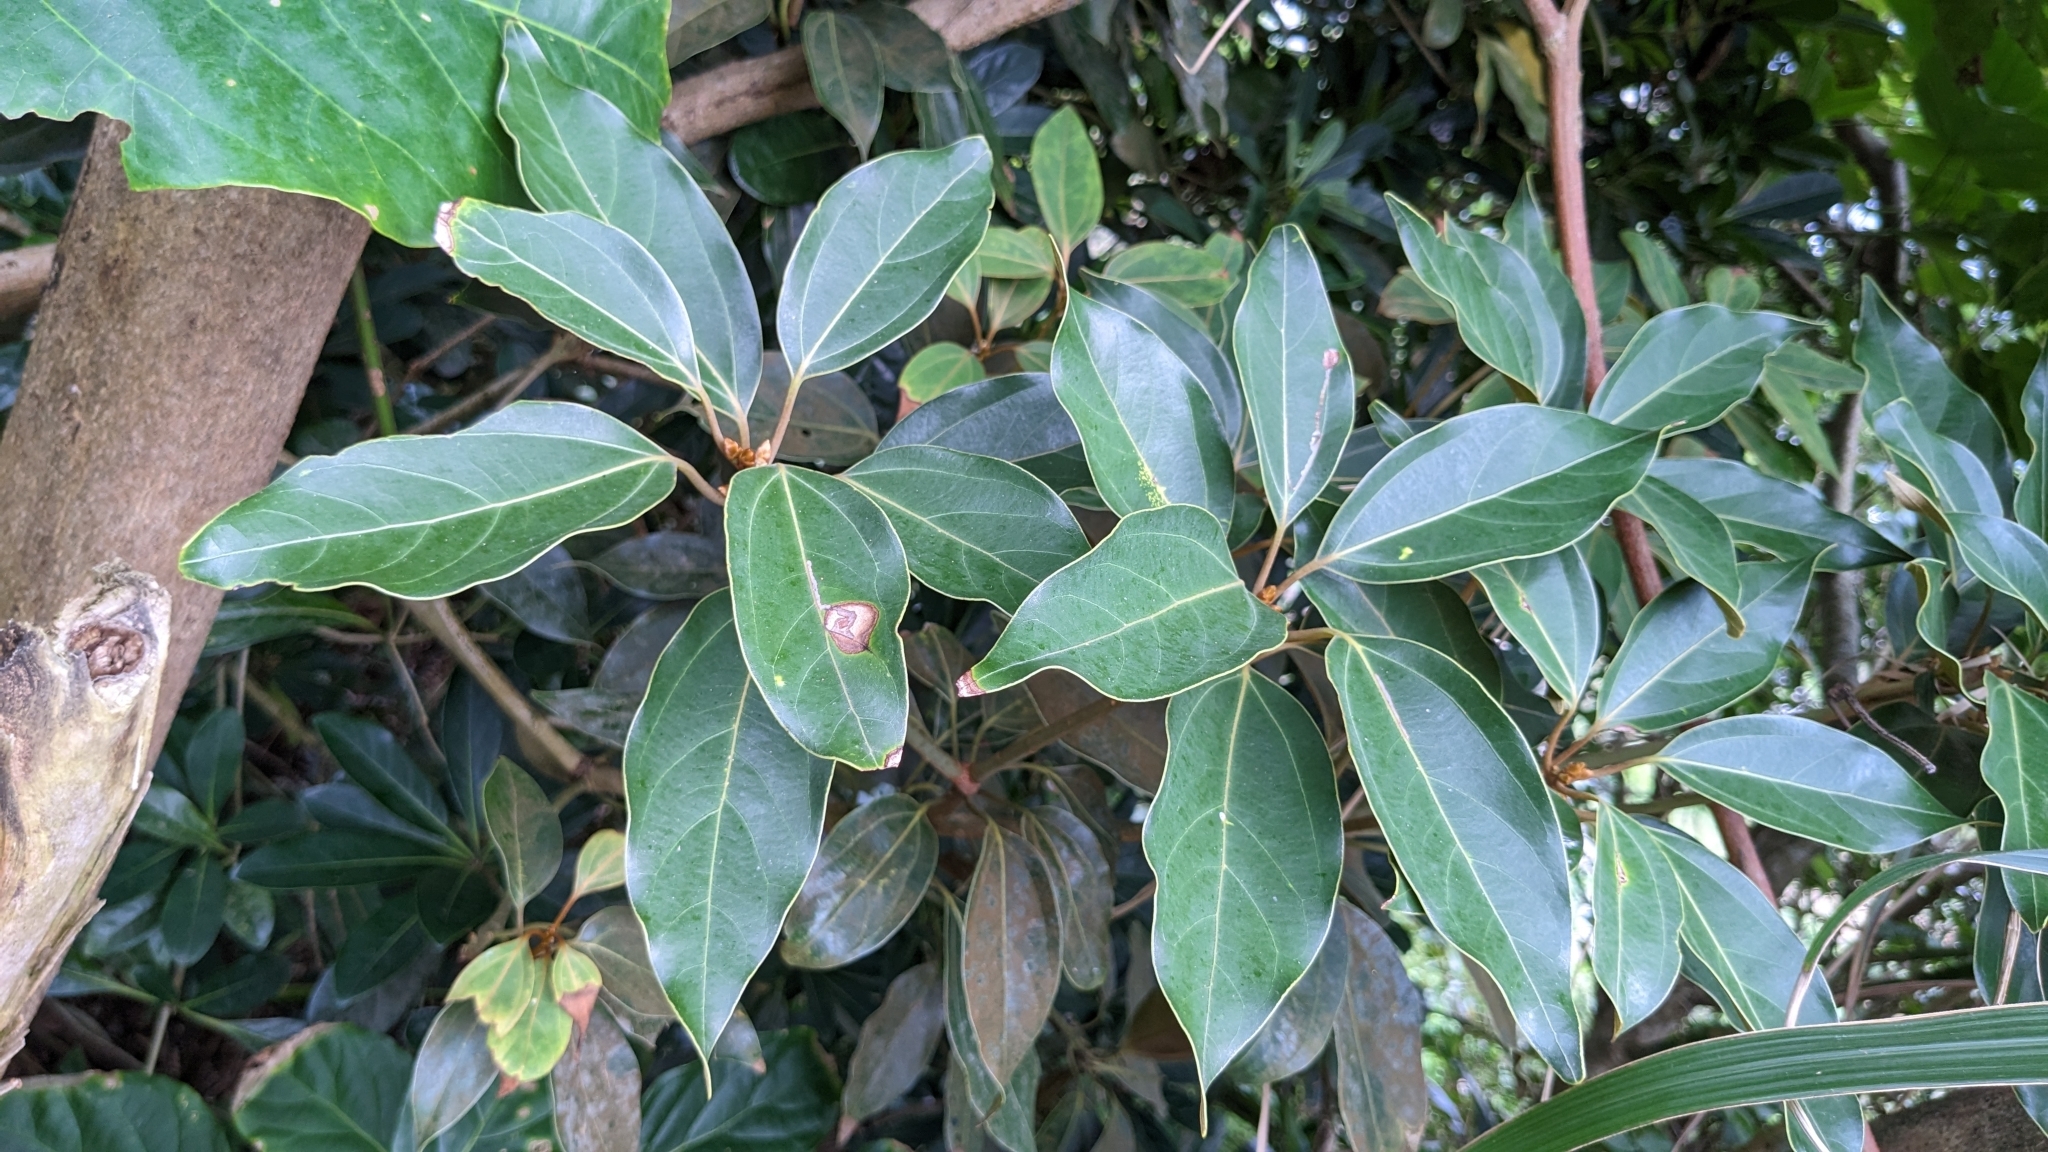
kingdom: Plantae
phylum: Tracheophyta
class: Magnoliopsida
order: Laurales
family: Lauraceae
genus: Neolitsea
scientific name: Neolitsea aurata
